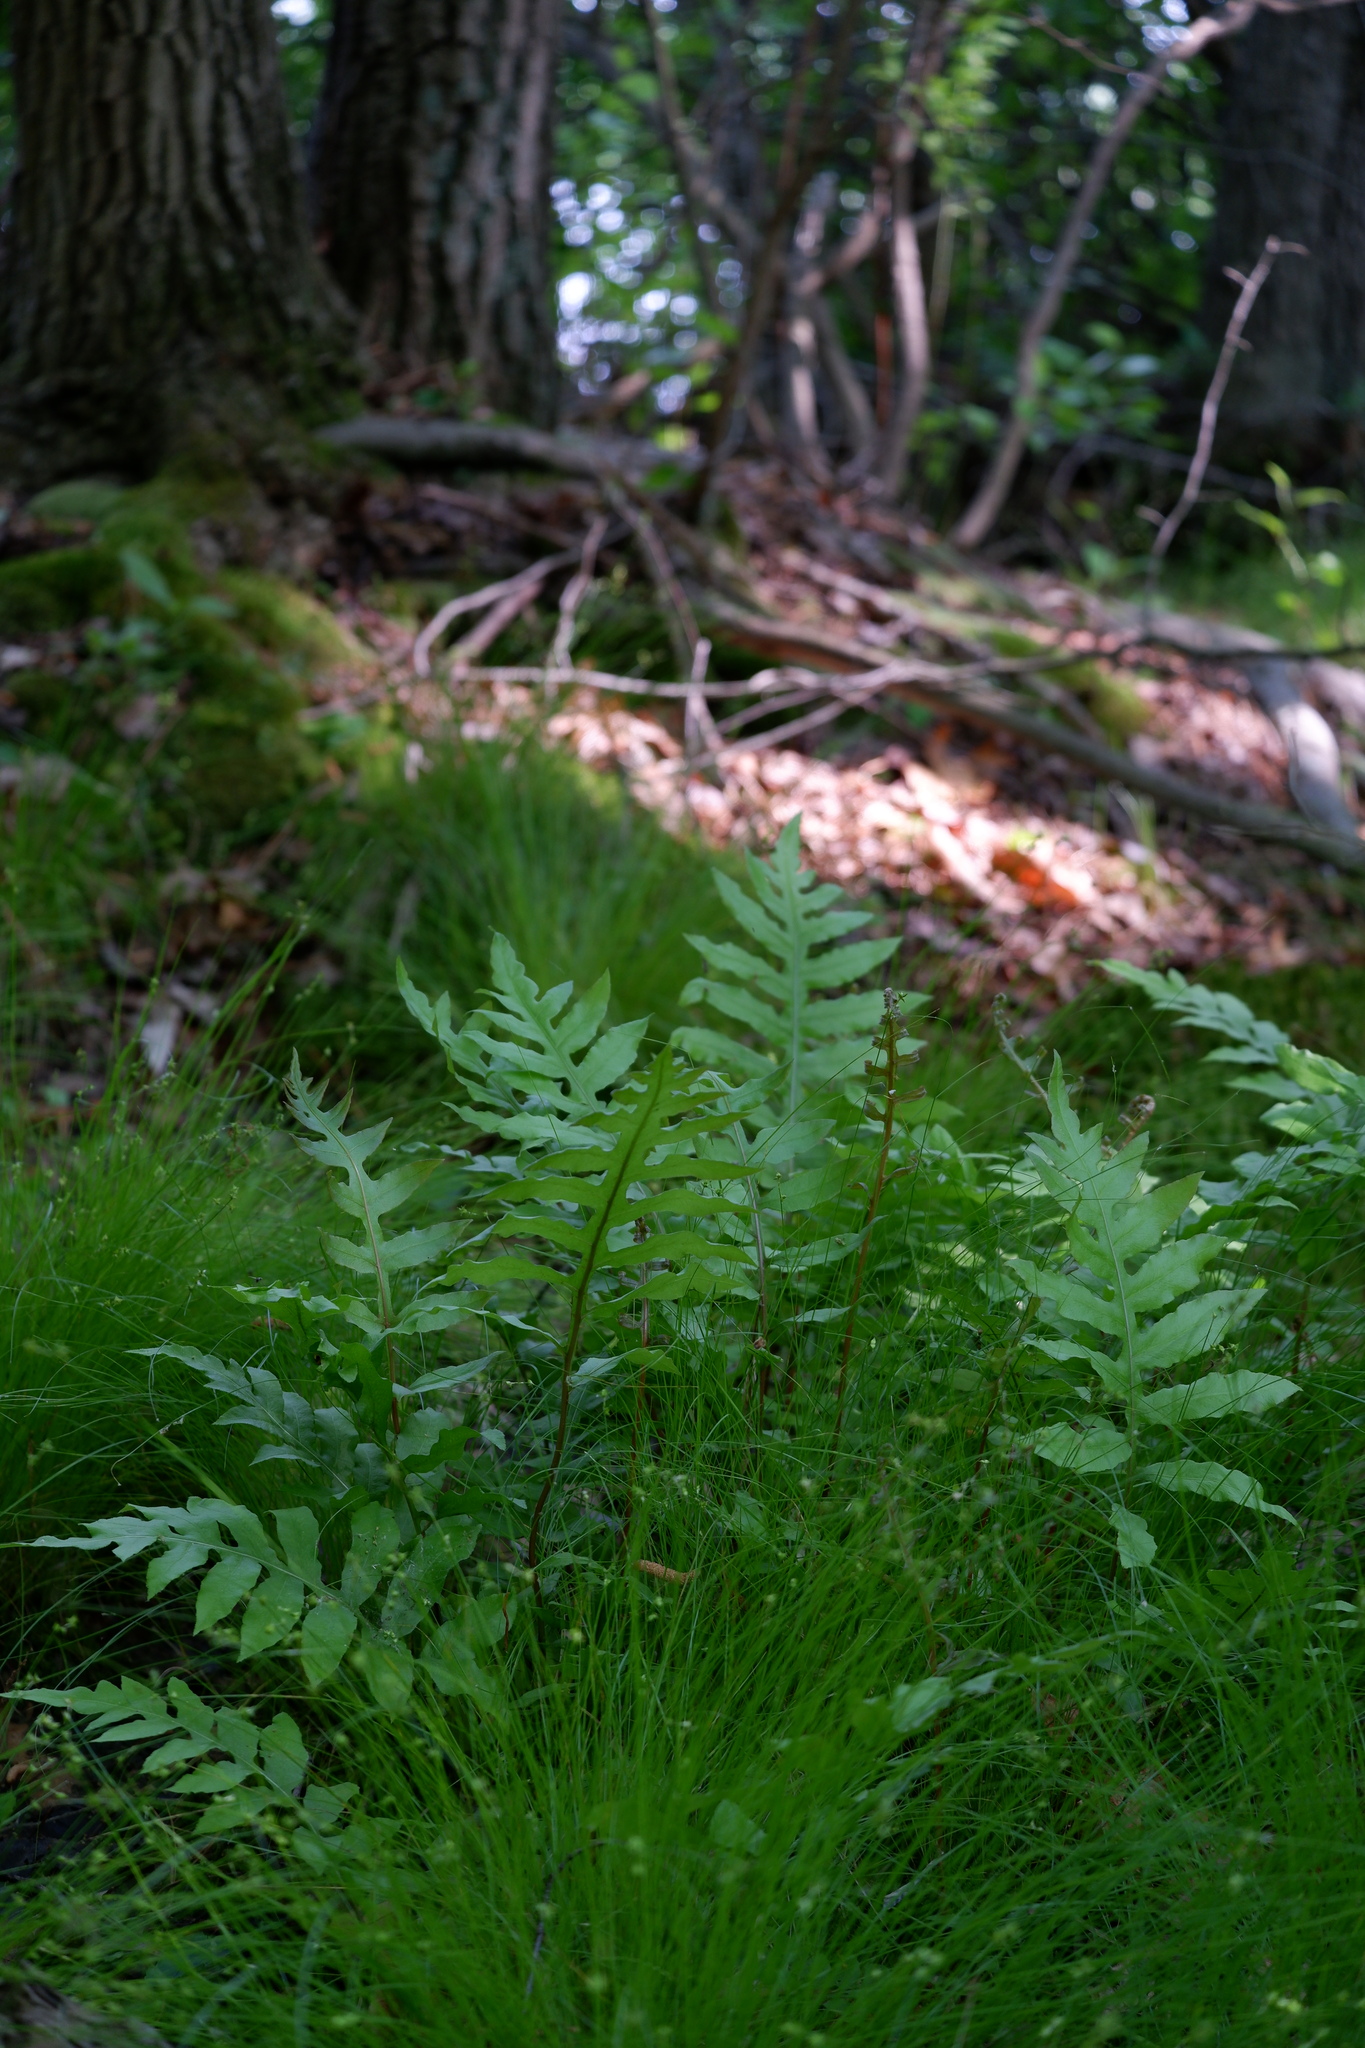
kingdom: Plantae
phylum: Tracheophyta
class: Polypodiopsida
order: Polypodiales
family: Blechnaceae
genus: Lorinseria
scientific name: Lorinseria areolata
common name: Dwarf chain fern
